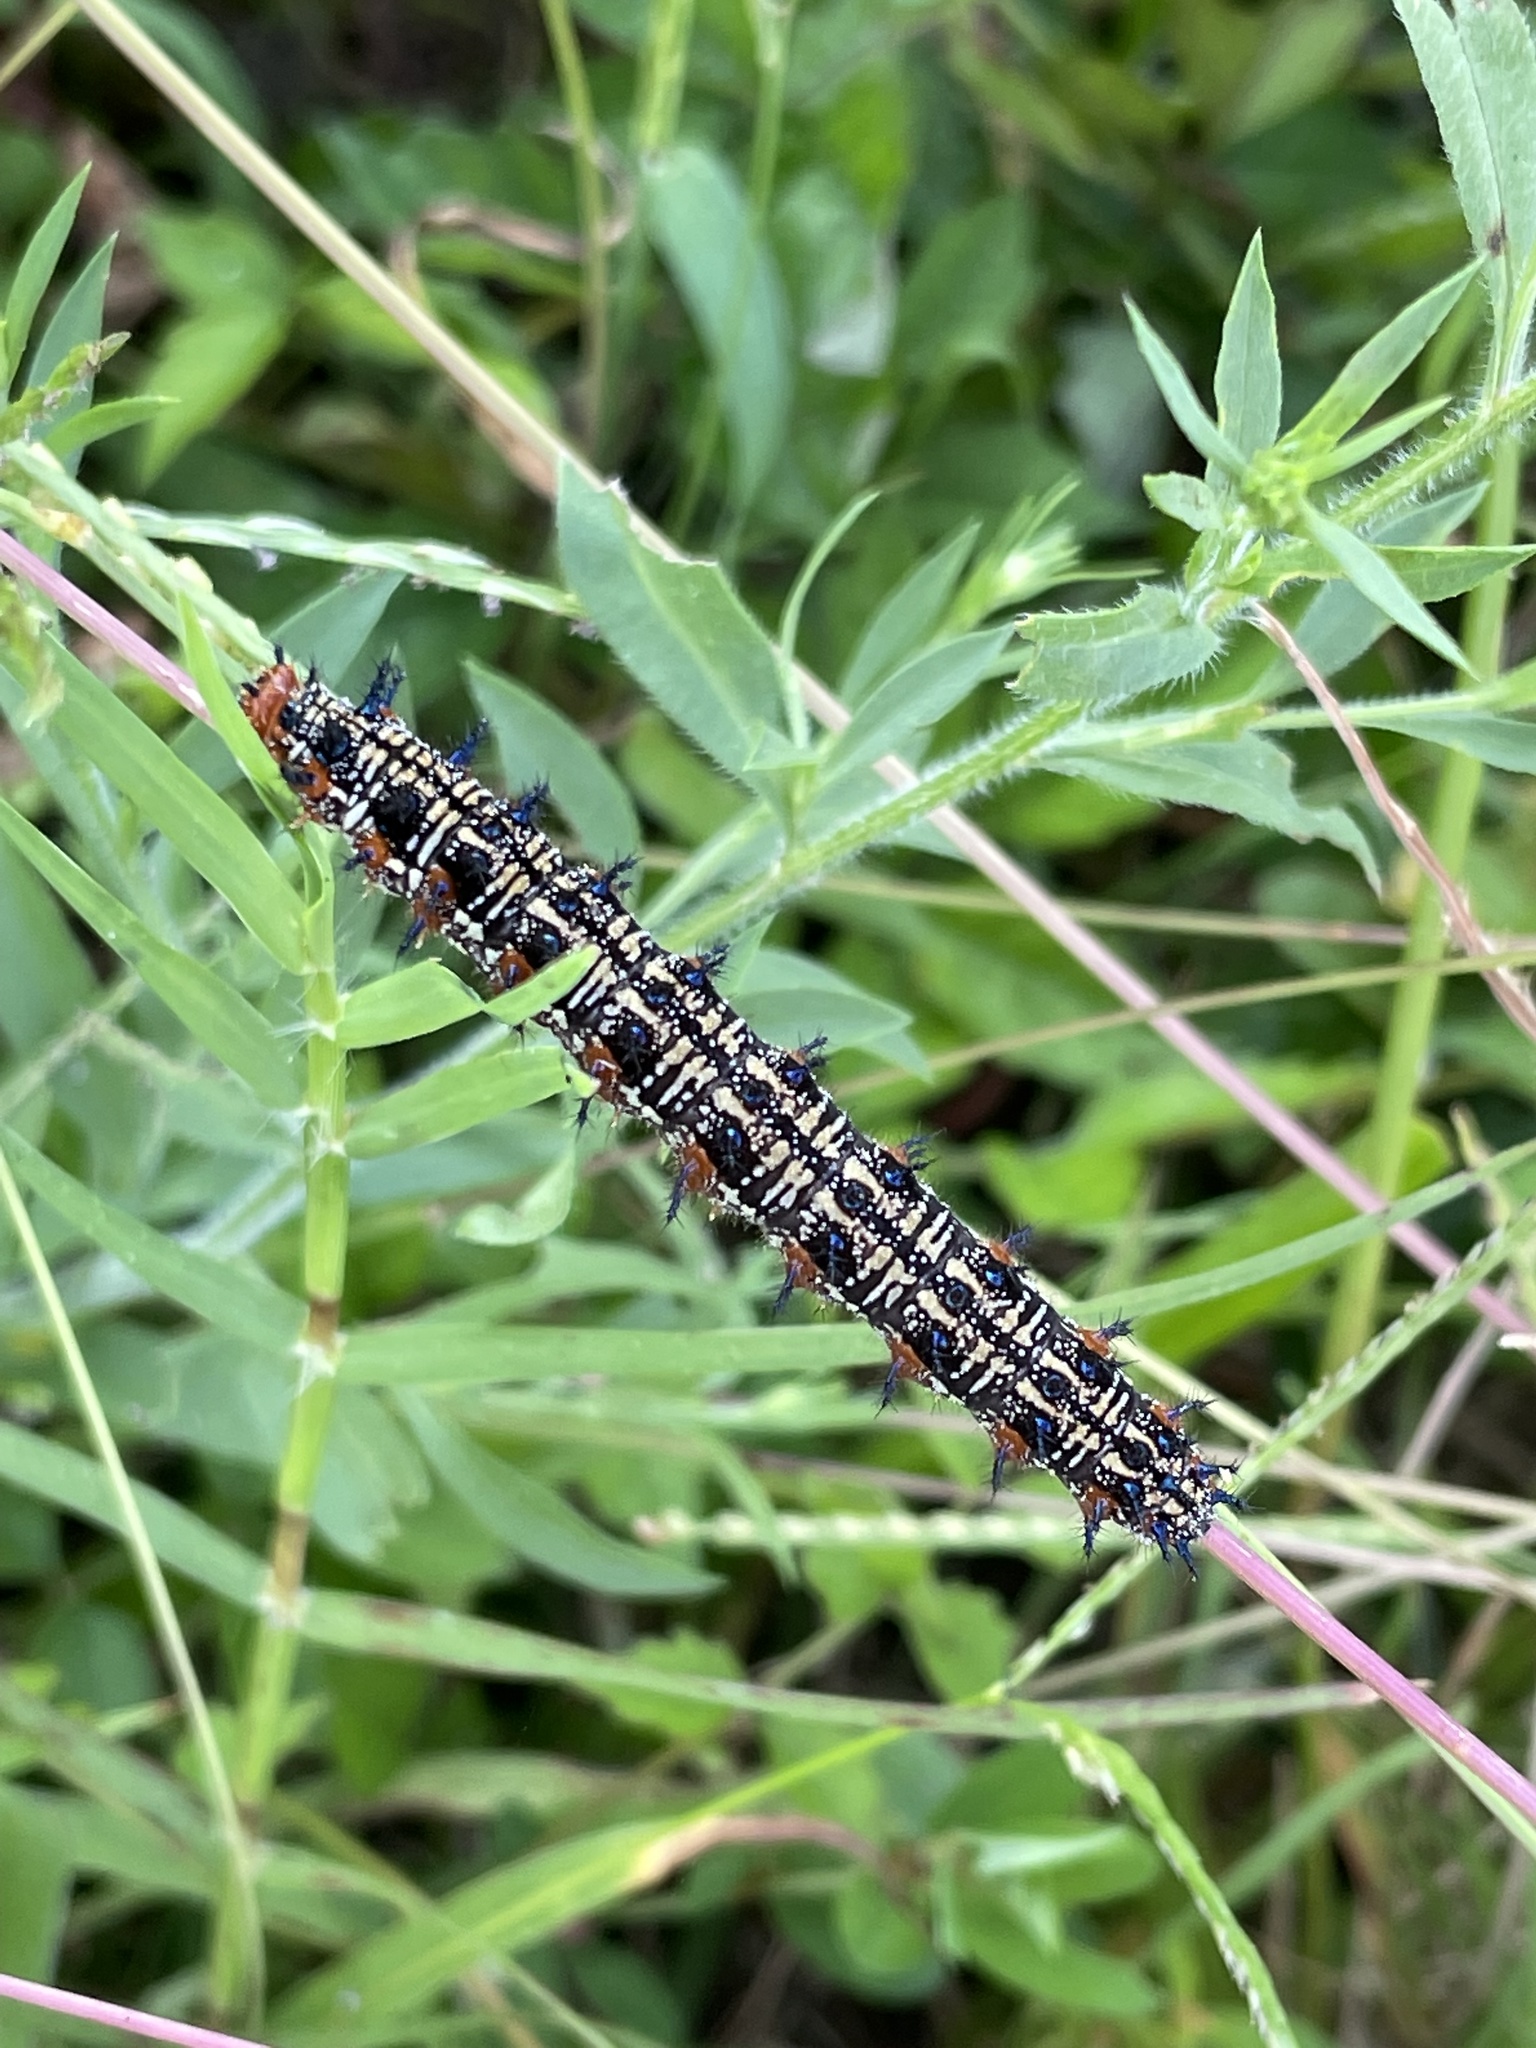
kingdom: Animalia
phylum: Arthropoda
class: Insecta
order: Lepidoptera
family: Nymphalidae
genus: Junonia
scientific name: Junonia coenia
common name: Common buckeye
